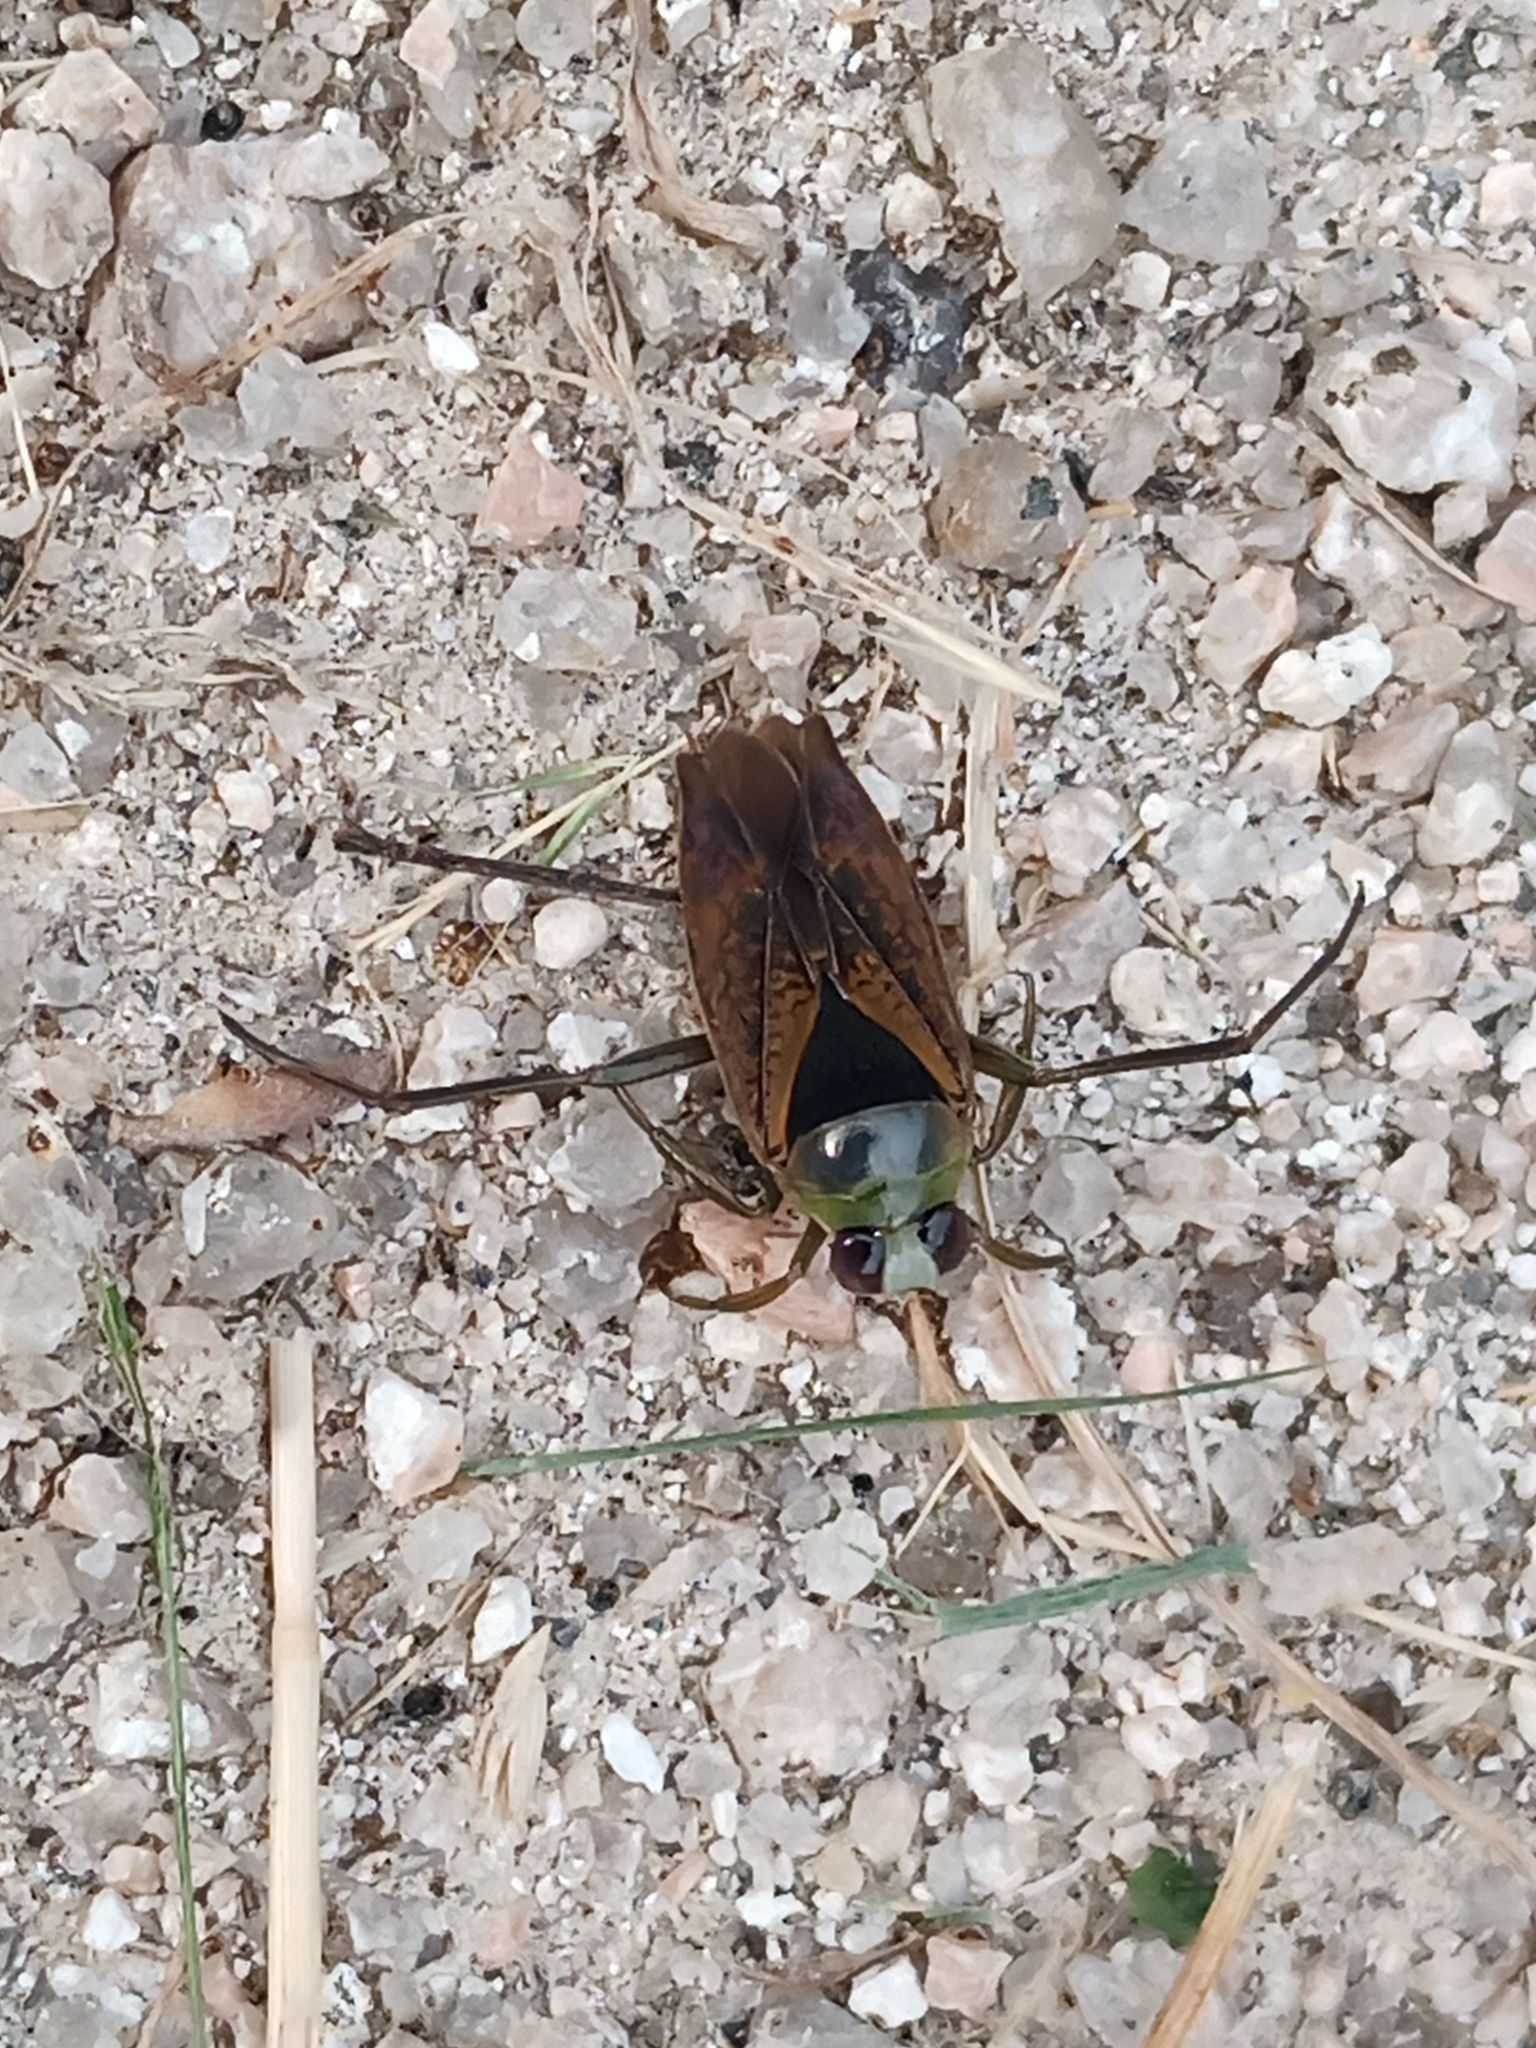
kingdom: Animalia
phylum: Arthropoda
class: Insecta
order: Hemiptera
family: Notonectidae
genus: Notonecta
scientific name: Notonecta maculata
